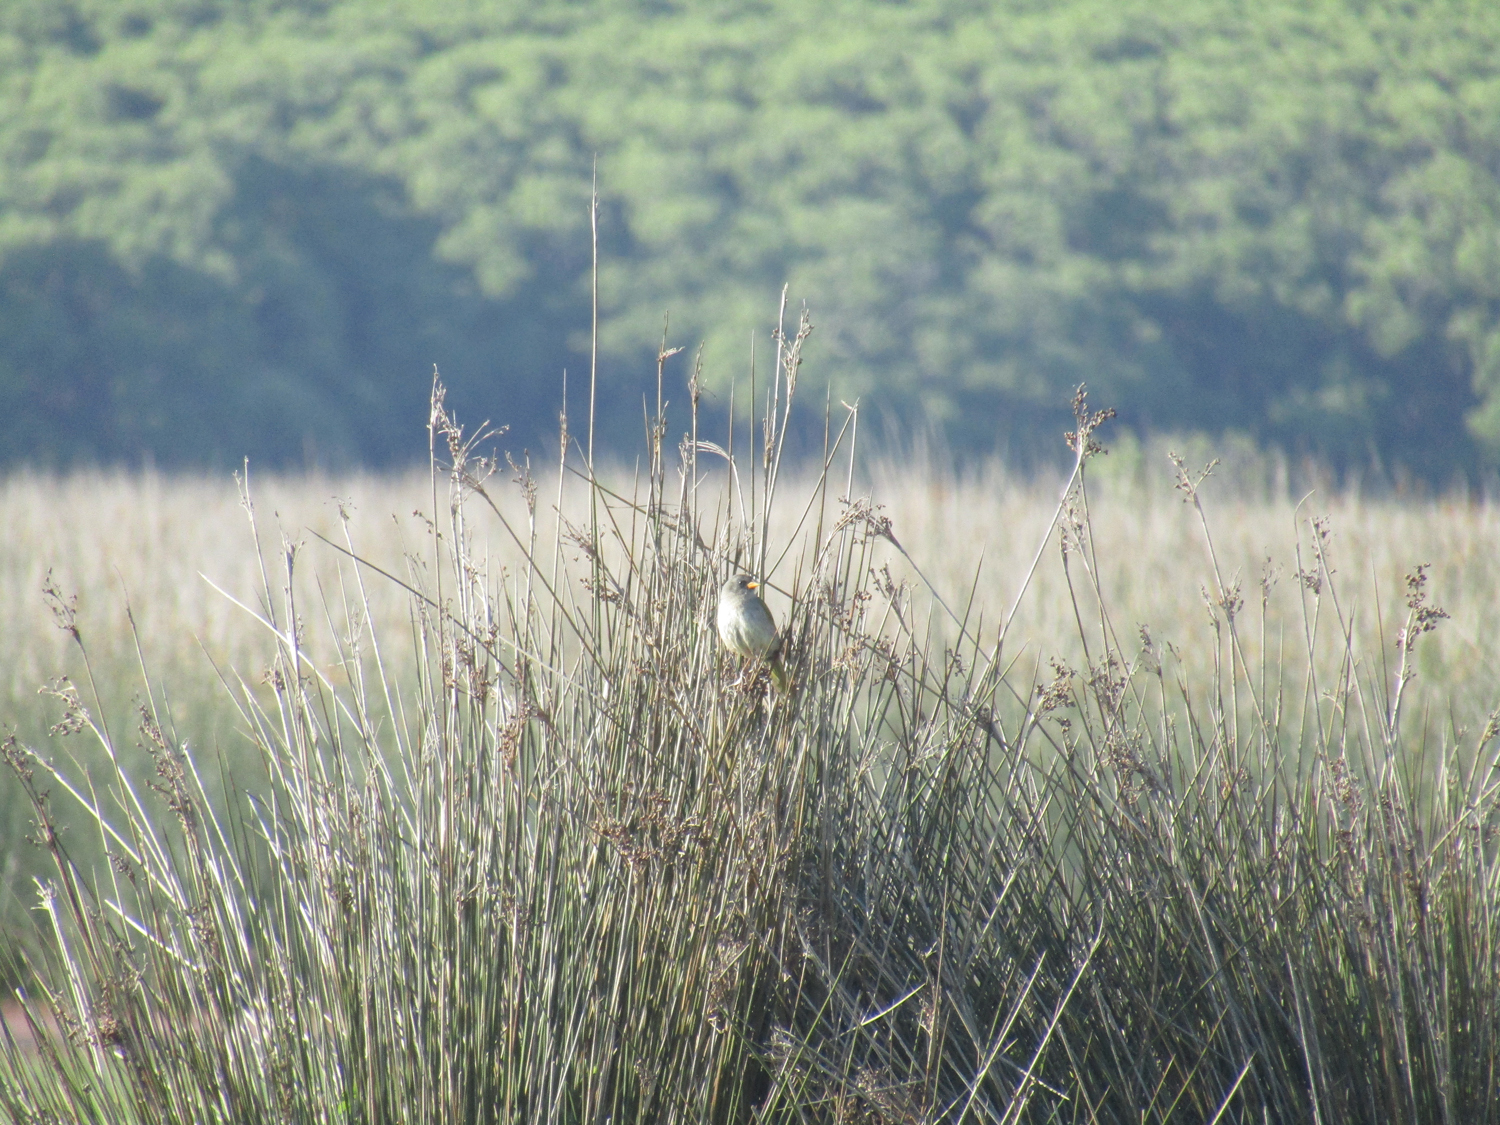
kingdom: Animalia
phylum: Chordata
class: Aves
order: Passeriformes
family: Thraupidae
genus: Embernagra
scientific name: Embernagra platensis
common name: Pampa finch
